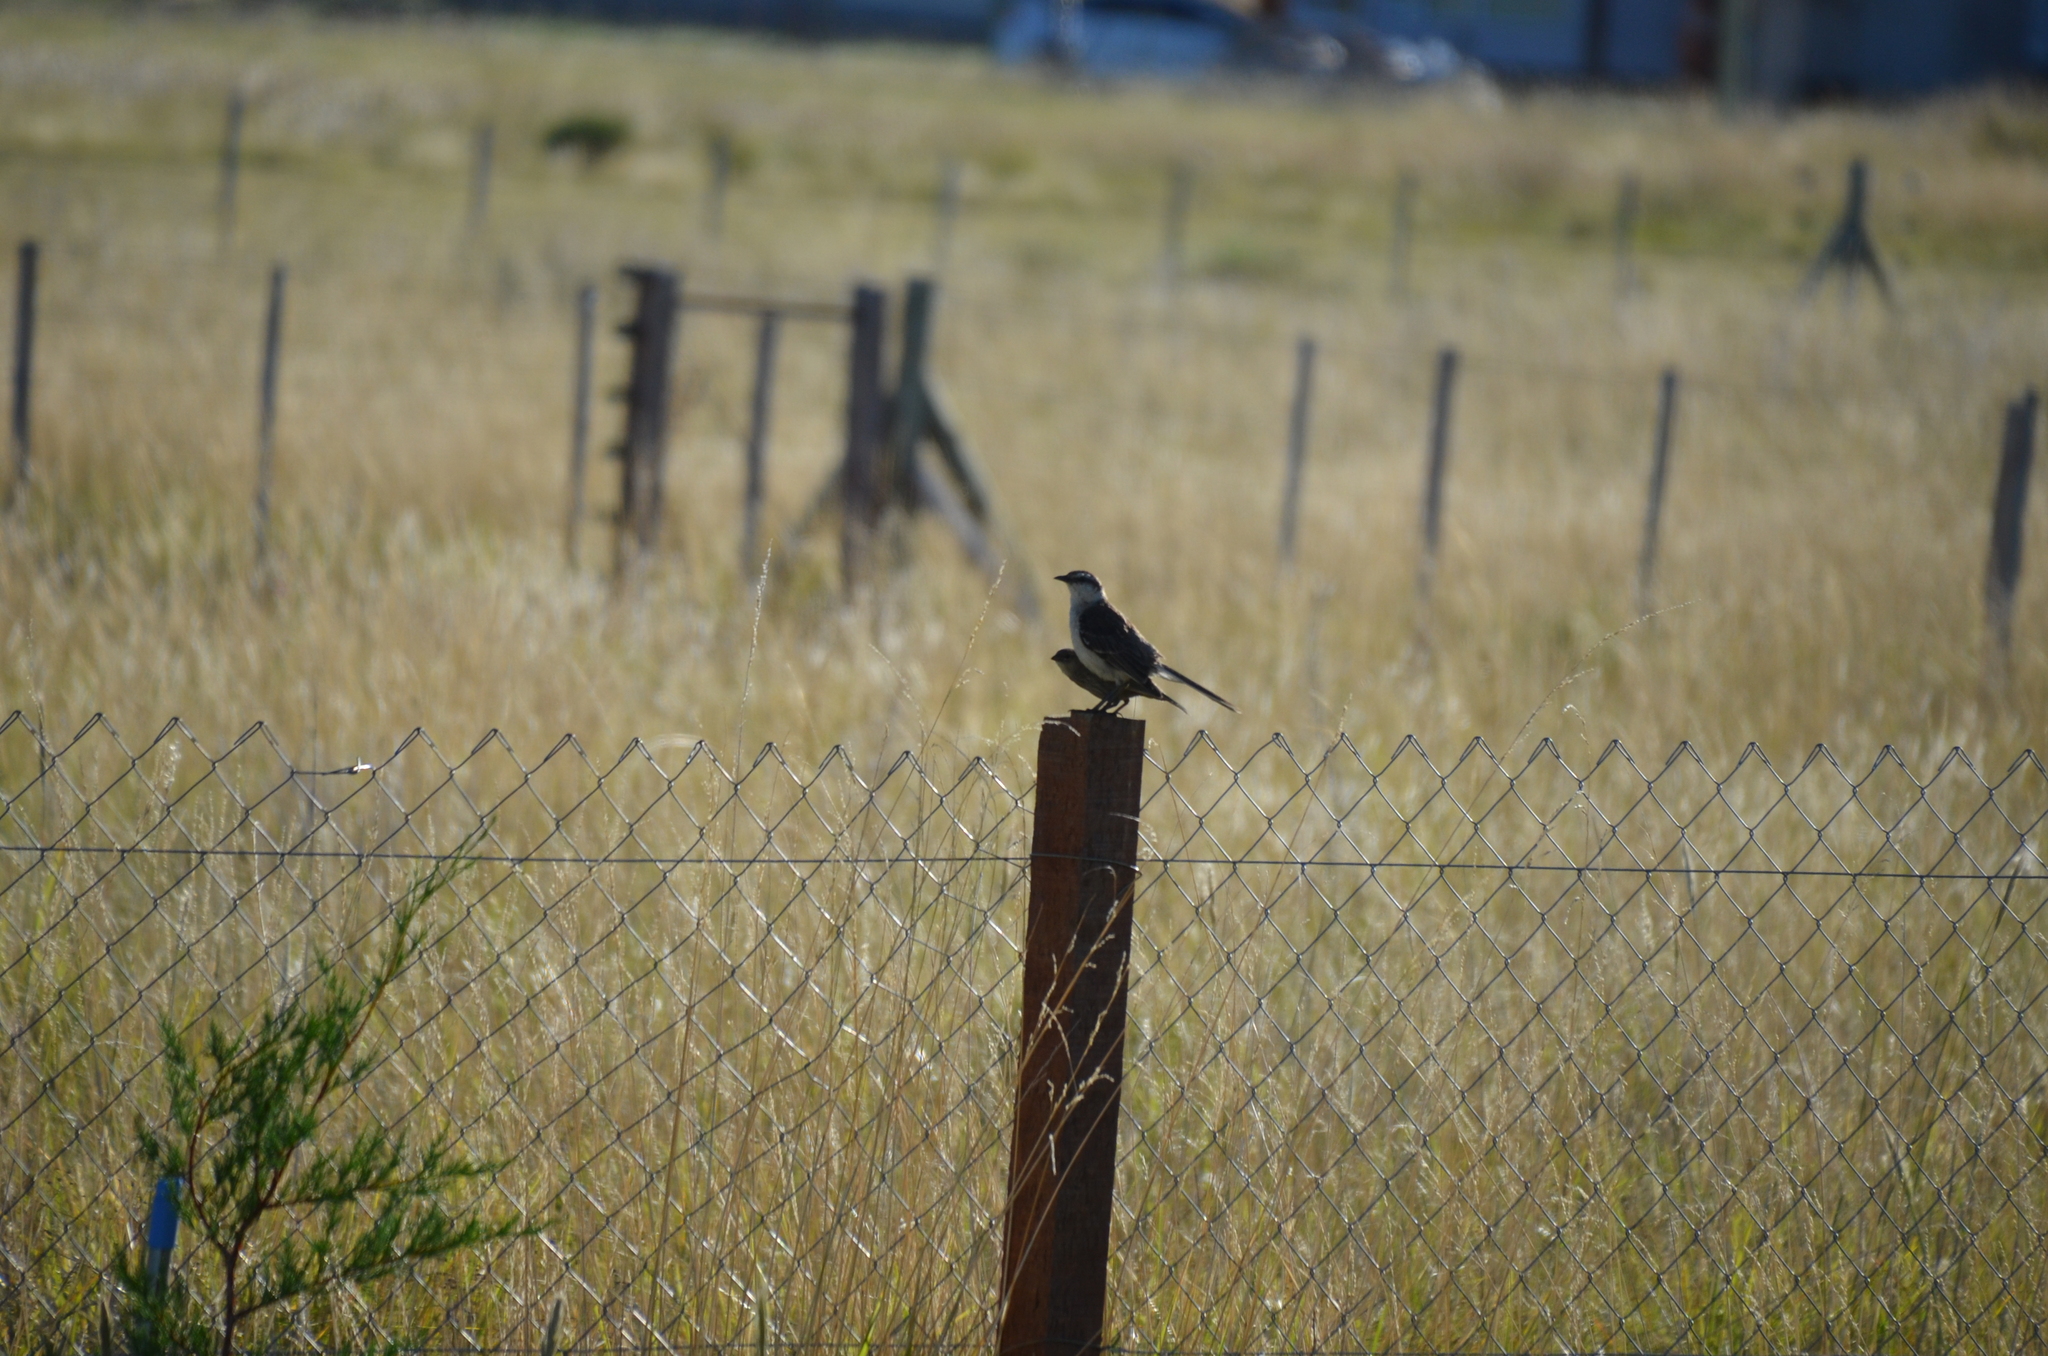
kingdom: Animalia
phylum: Chordata
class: Aves
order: Passeriformes
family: Mimidae
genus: Mimus
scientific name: Mimus saturninus
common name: Chalk-browed mockingbird
